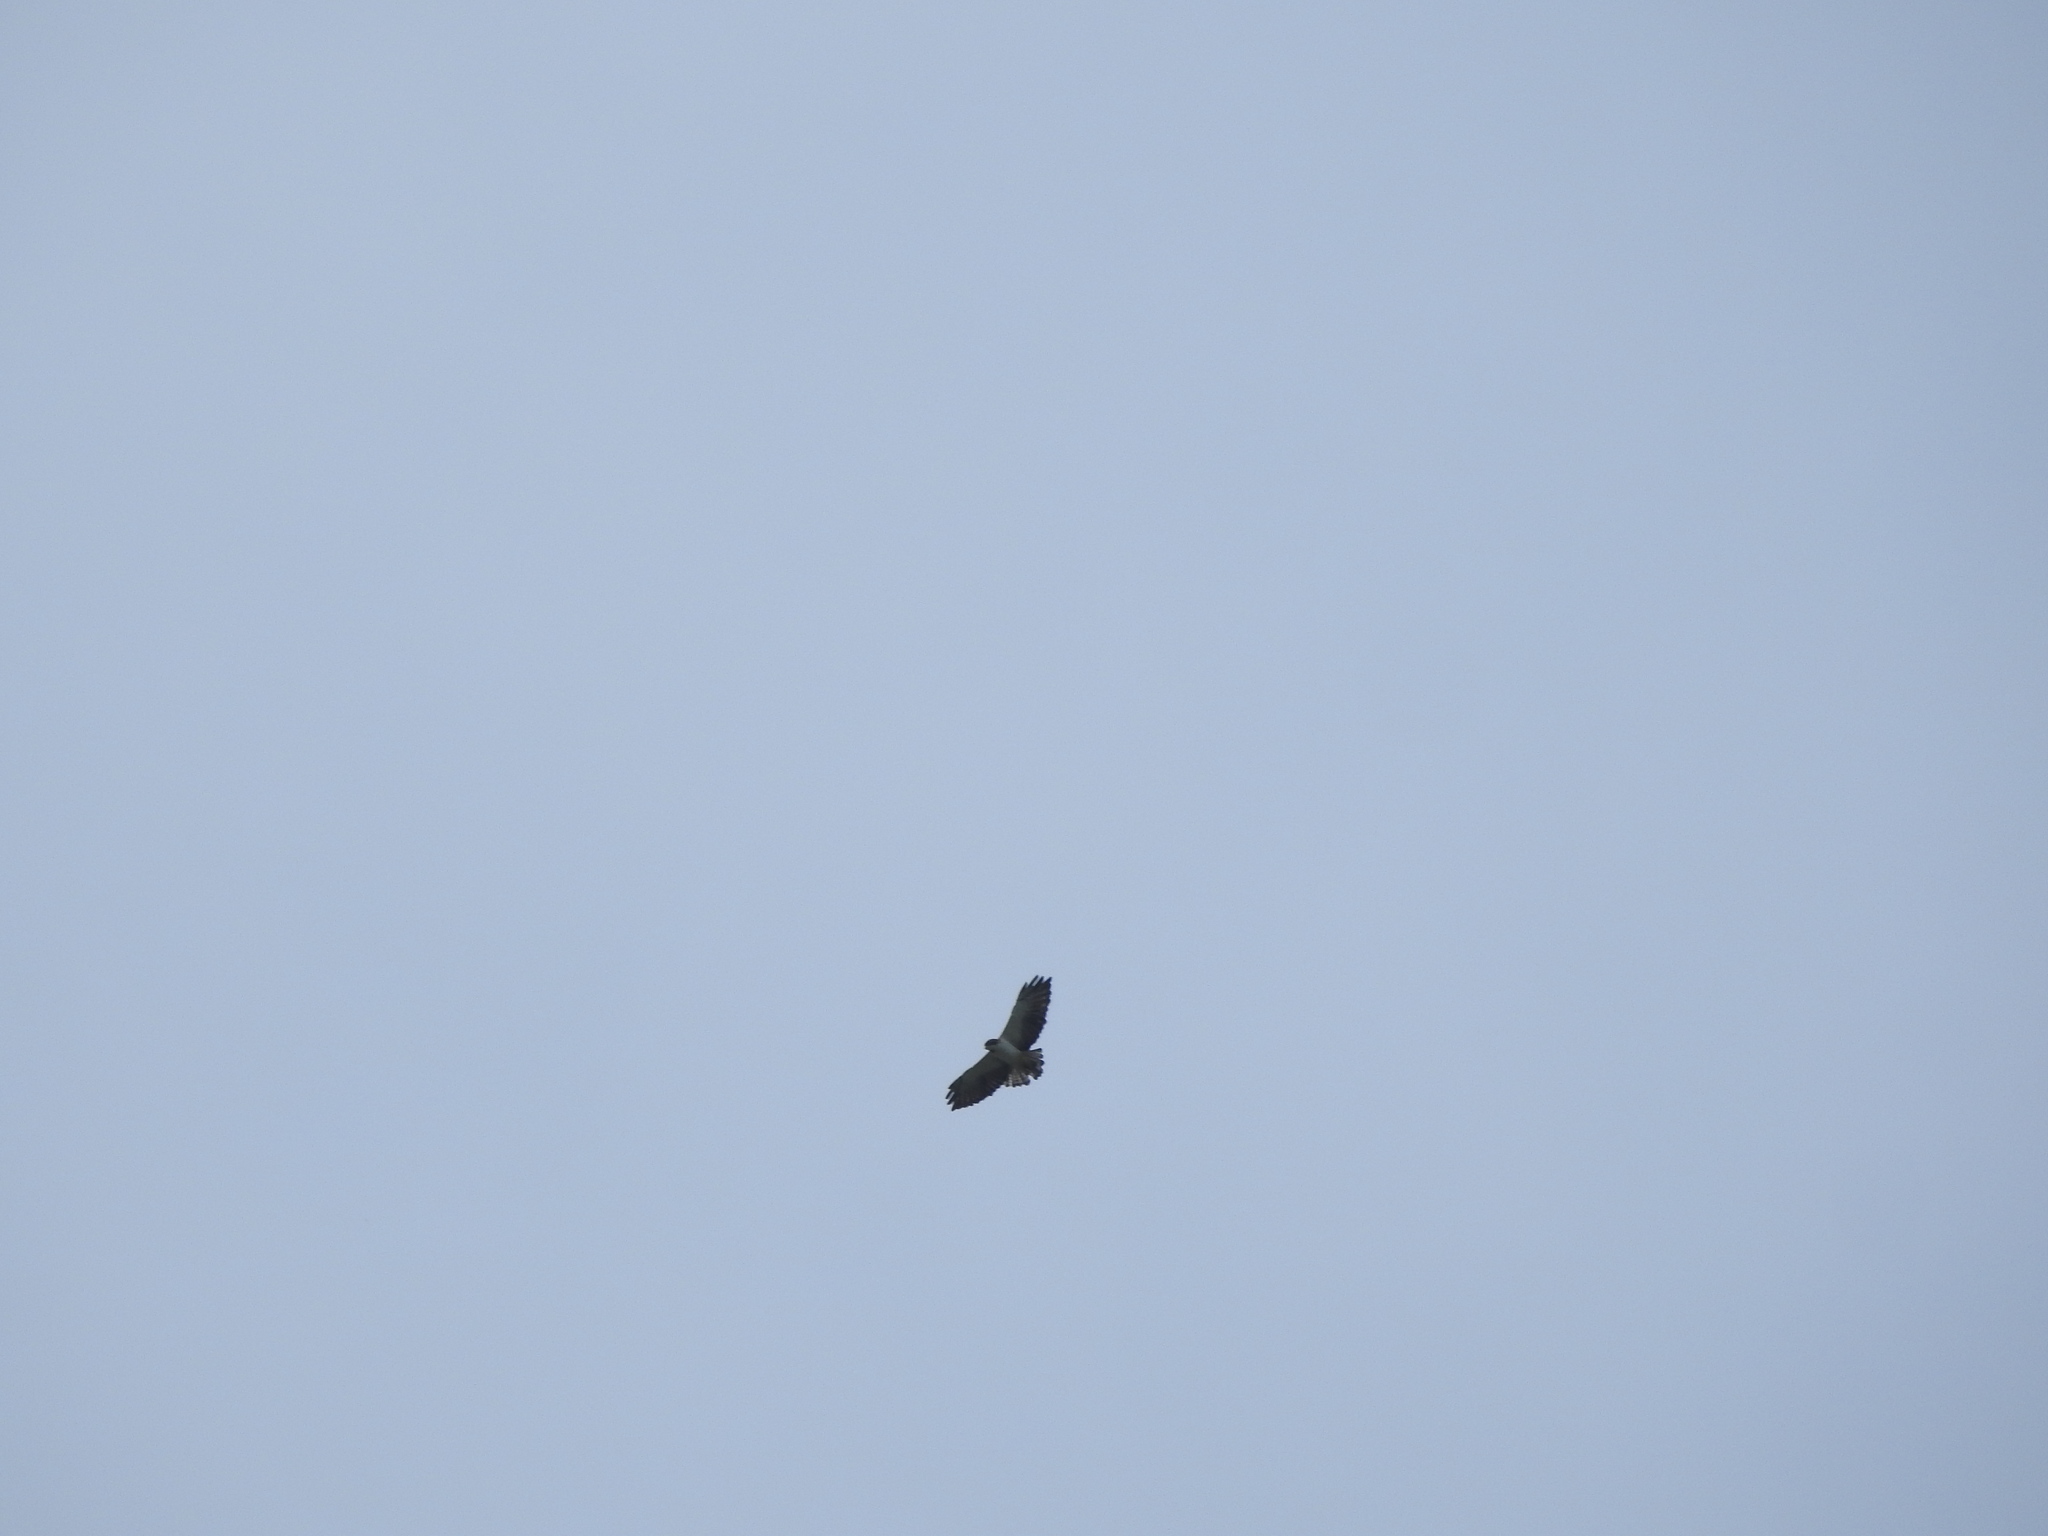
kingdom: Animalia
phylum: Chordata
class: Aves
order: Accipitriformes
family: Accipitridae
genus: Buteo
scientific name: Buteo brachyurus
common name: Short-tailed hawk
